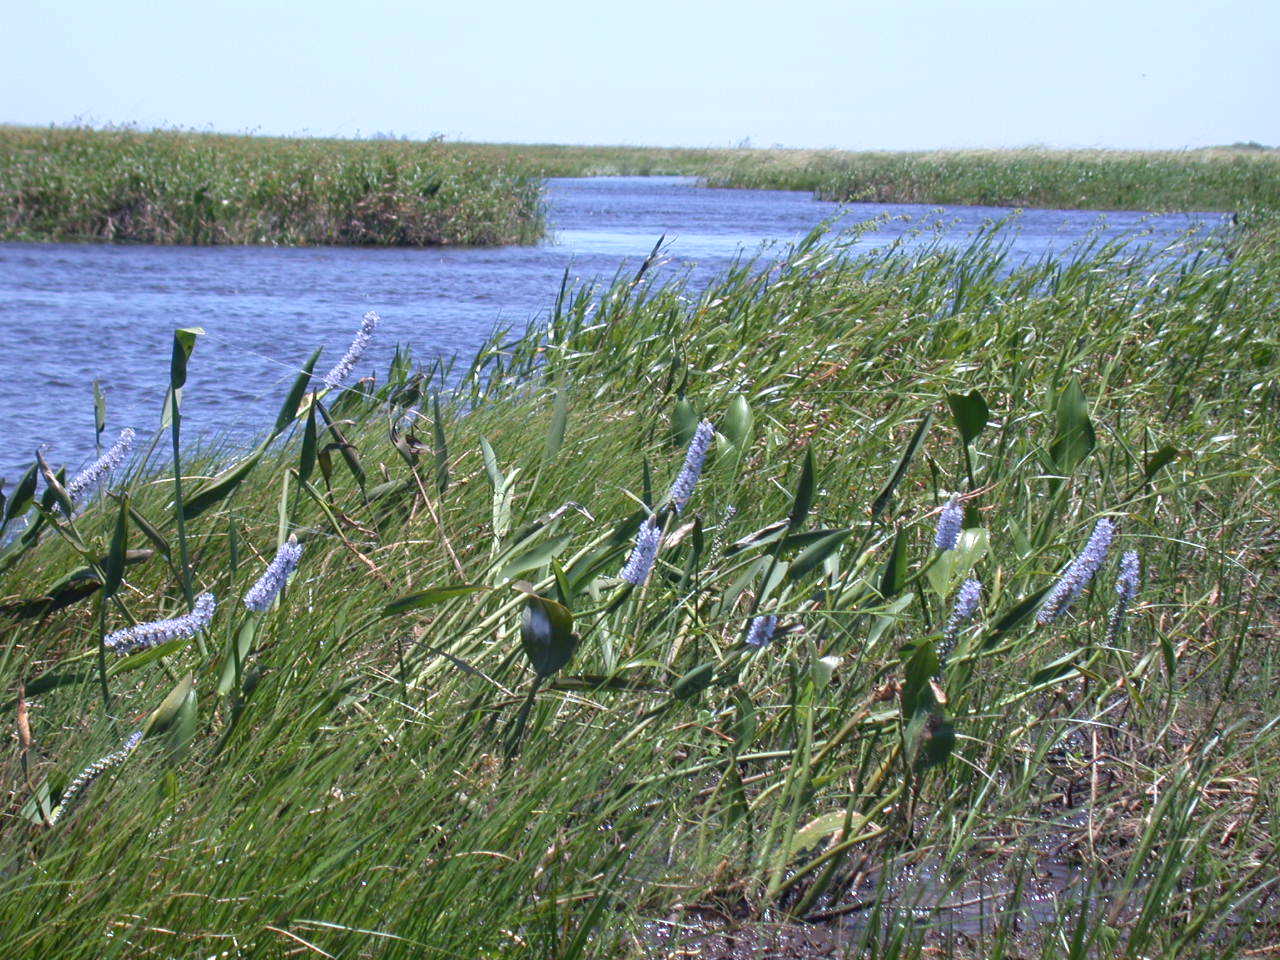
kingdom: Plantae
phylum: Tracheophyta
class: Liliopsida
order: Commelinales
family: Pontederiaceae
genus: Pontederia
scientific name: Pontederia cordata
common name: Pickerelweed
